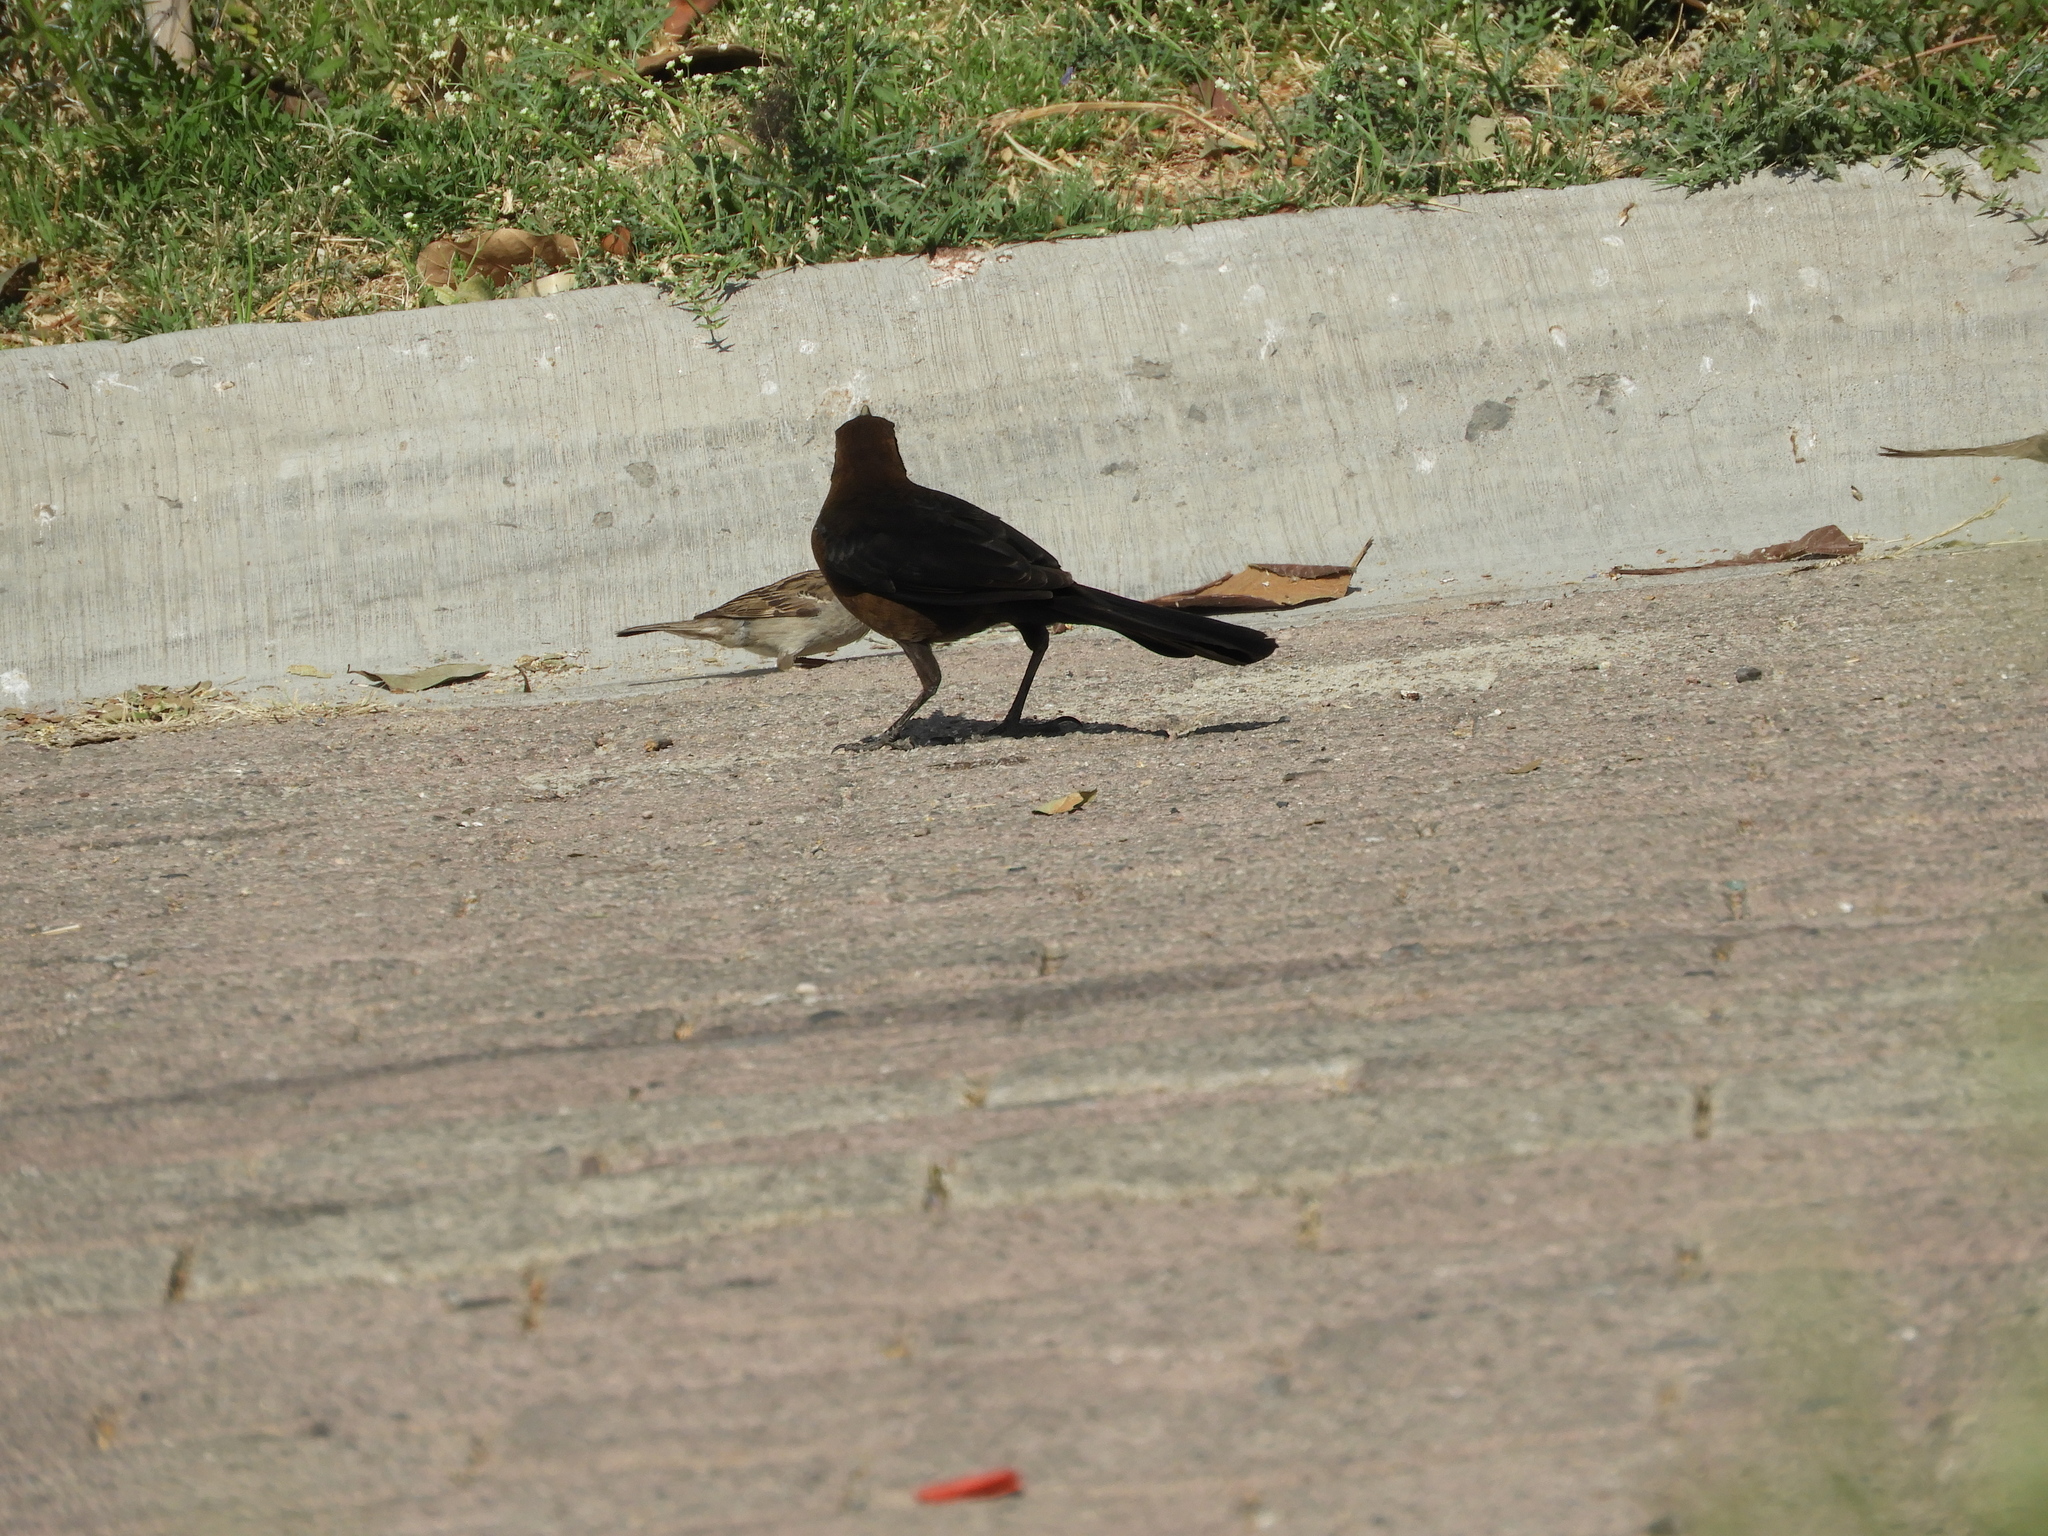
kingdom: Animalia
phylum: Chordata
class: Aves
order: Passeriformes
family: Icteridae
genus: Quiscalus
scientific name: Quiscalus mexicanus
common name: Great-tailed grackle
